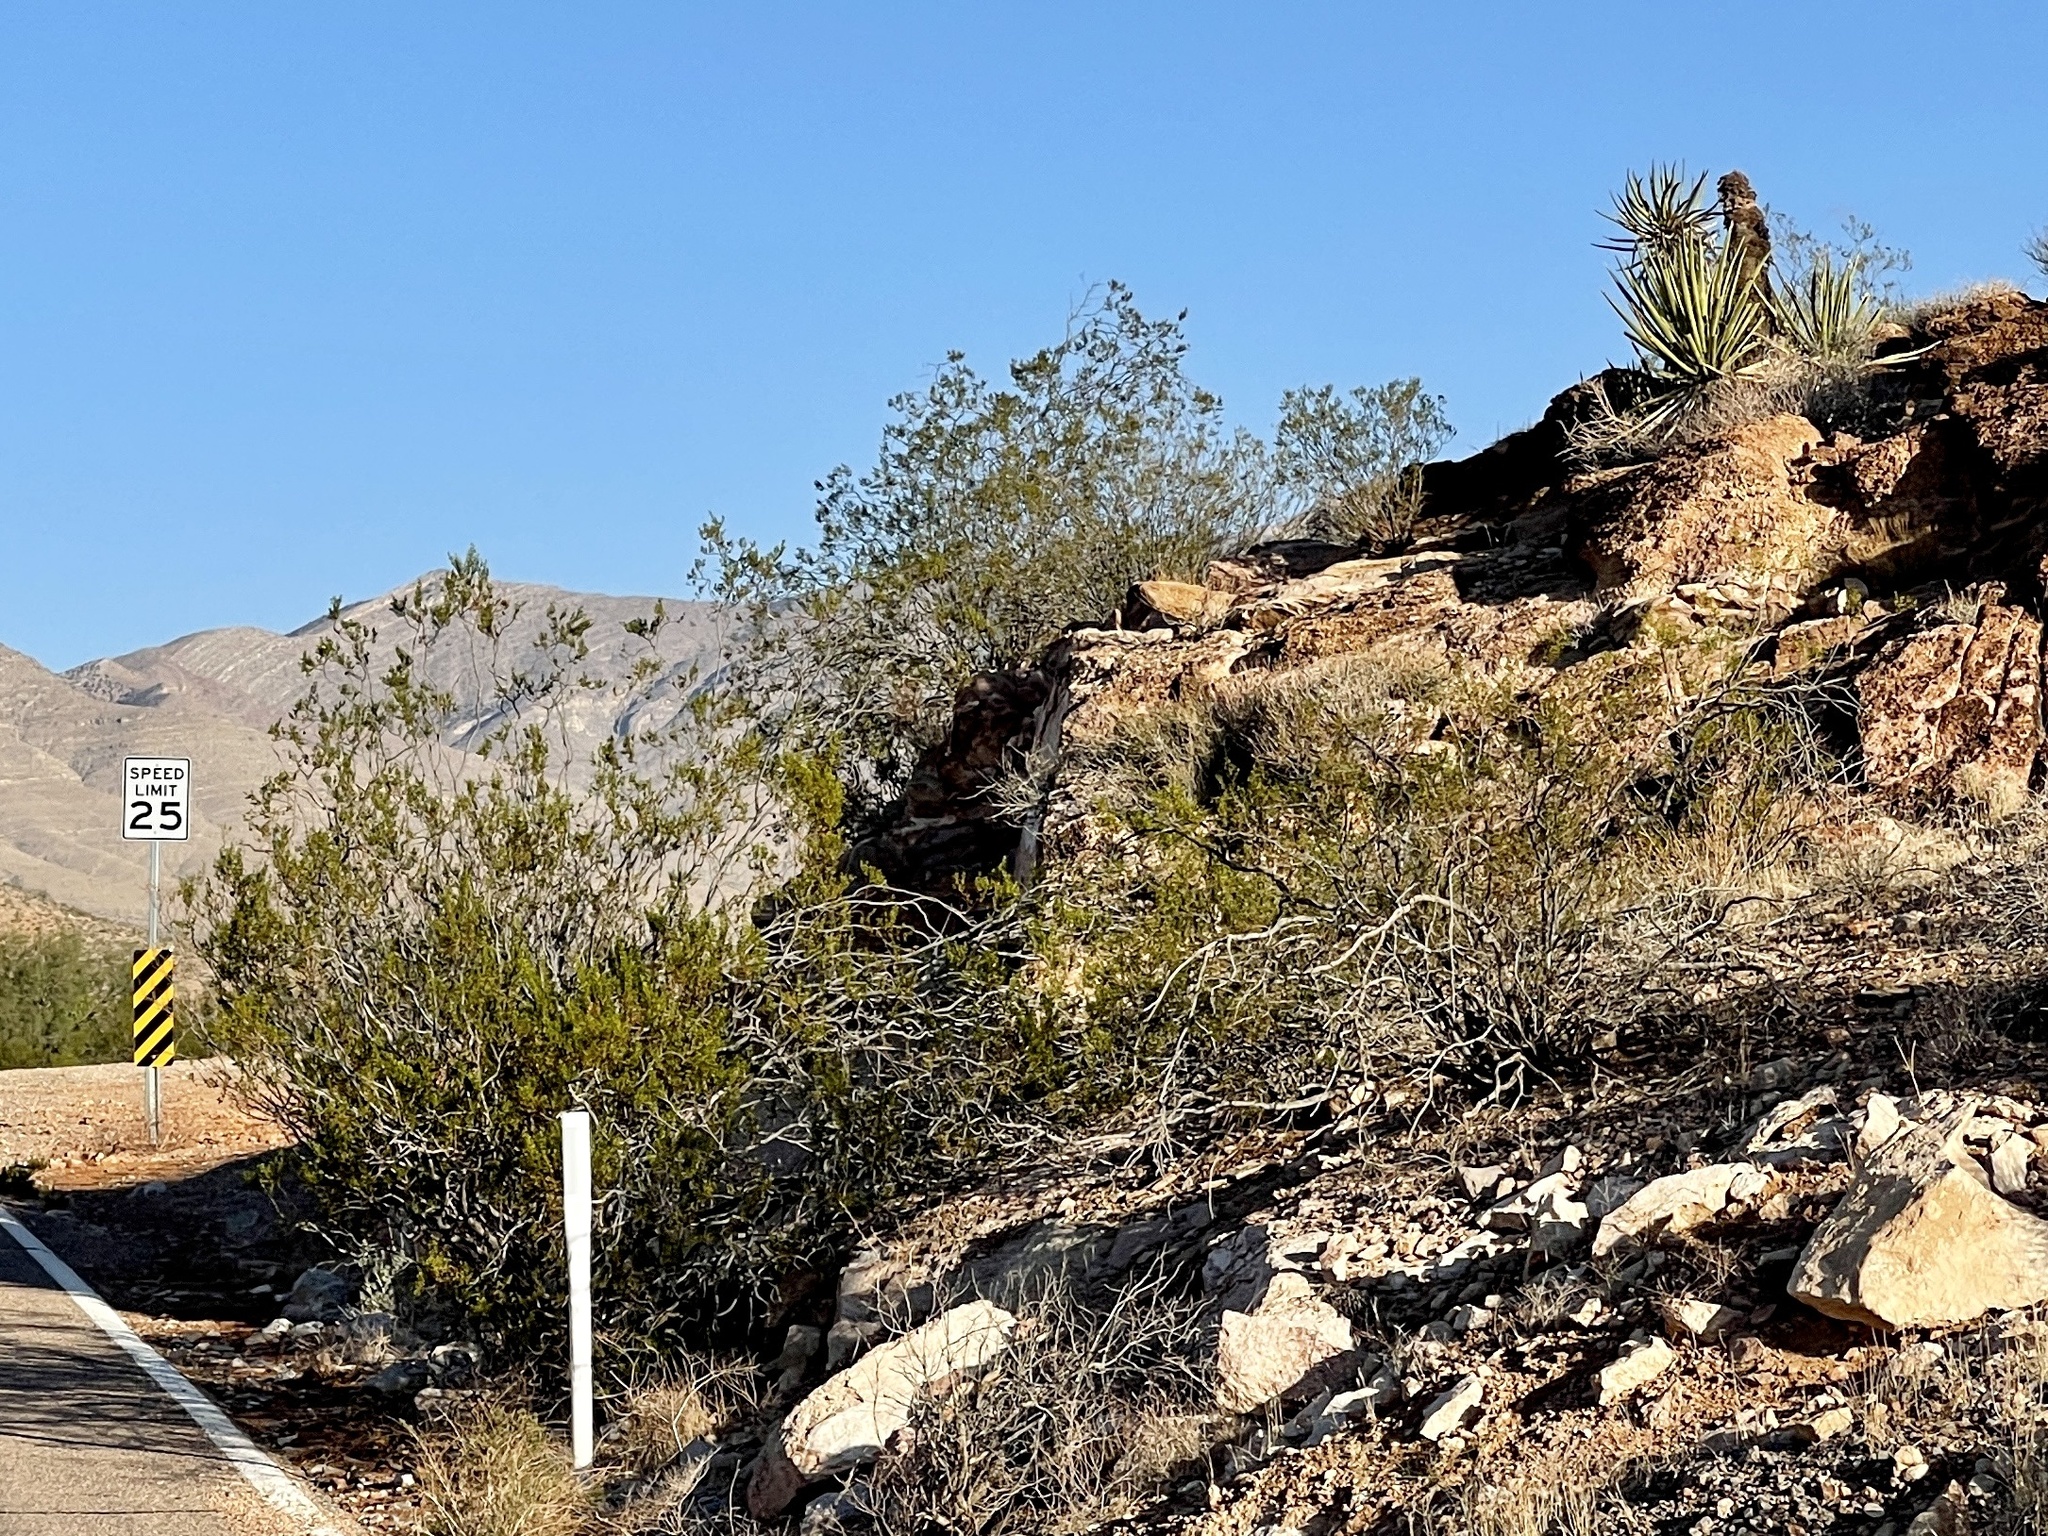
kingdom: Plantae
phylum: Tracheophyta
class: Magnoliopsida
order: Zygophyllales
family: Zygophyllaceae
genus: Larrea
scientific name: Larrea tridentata
